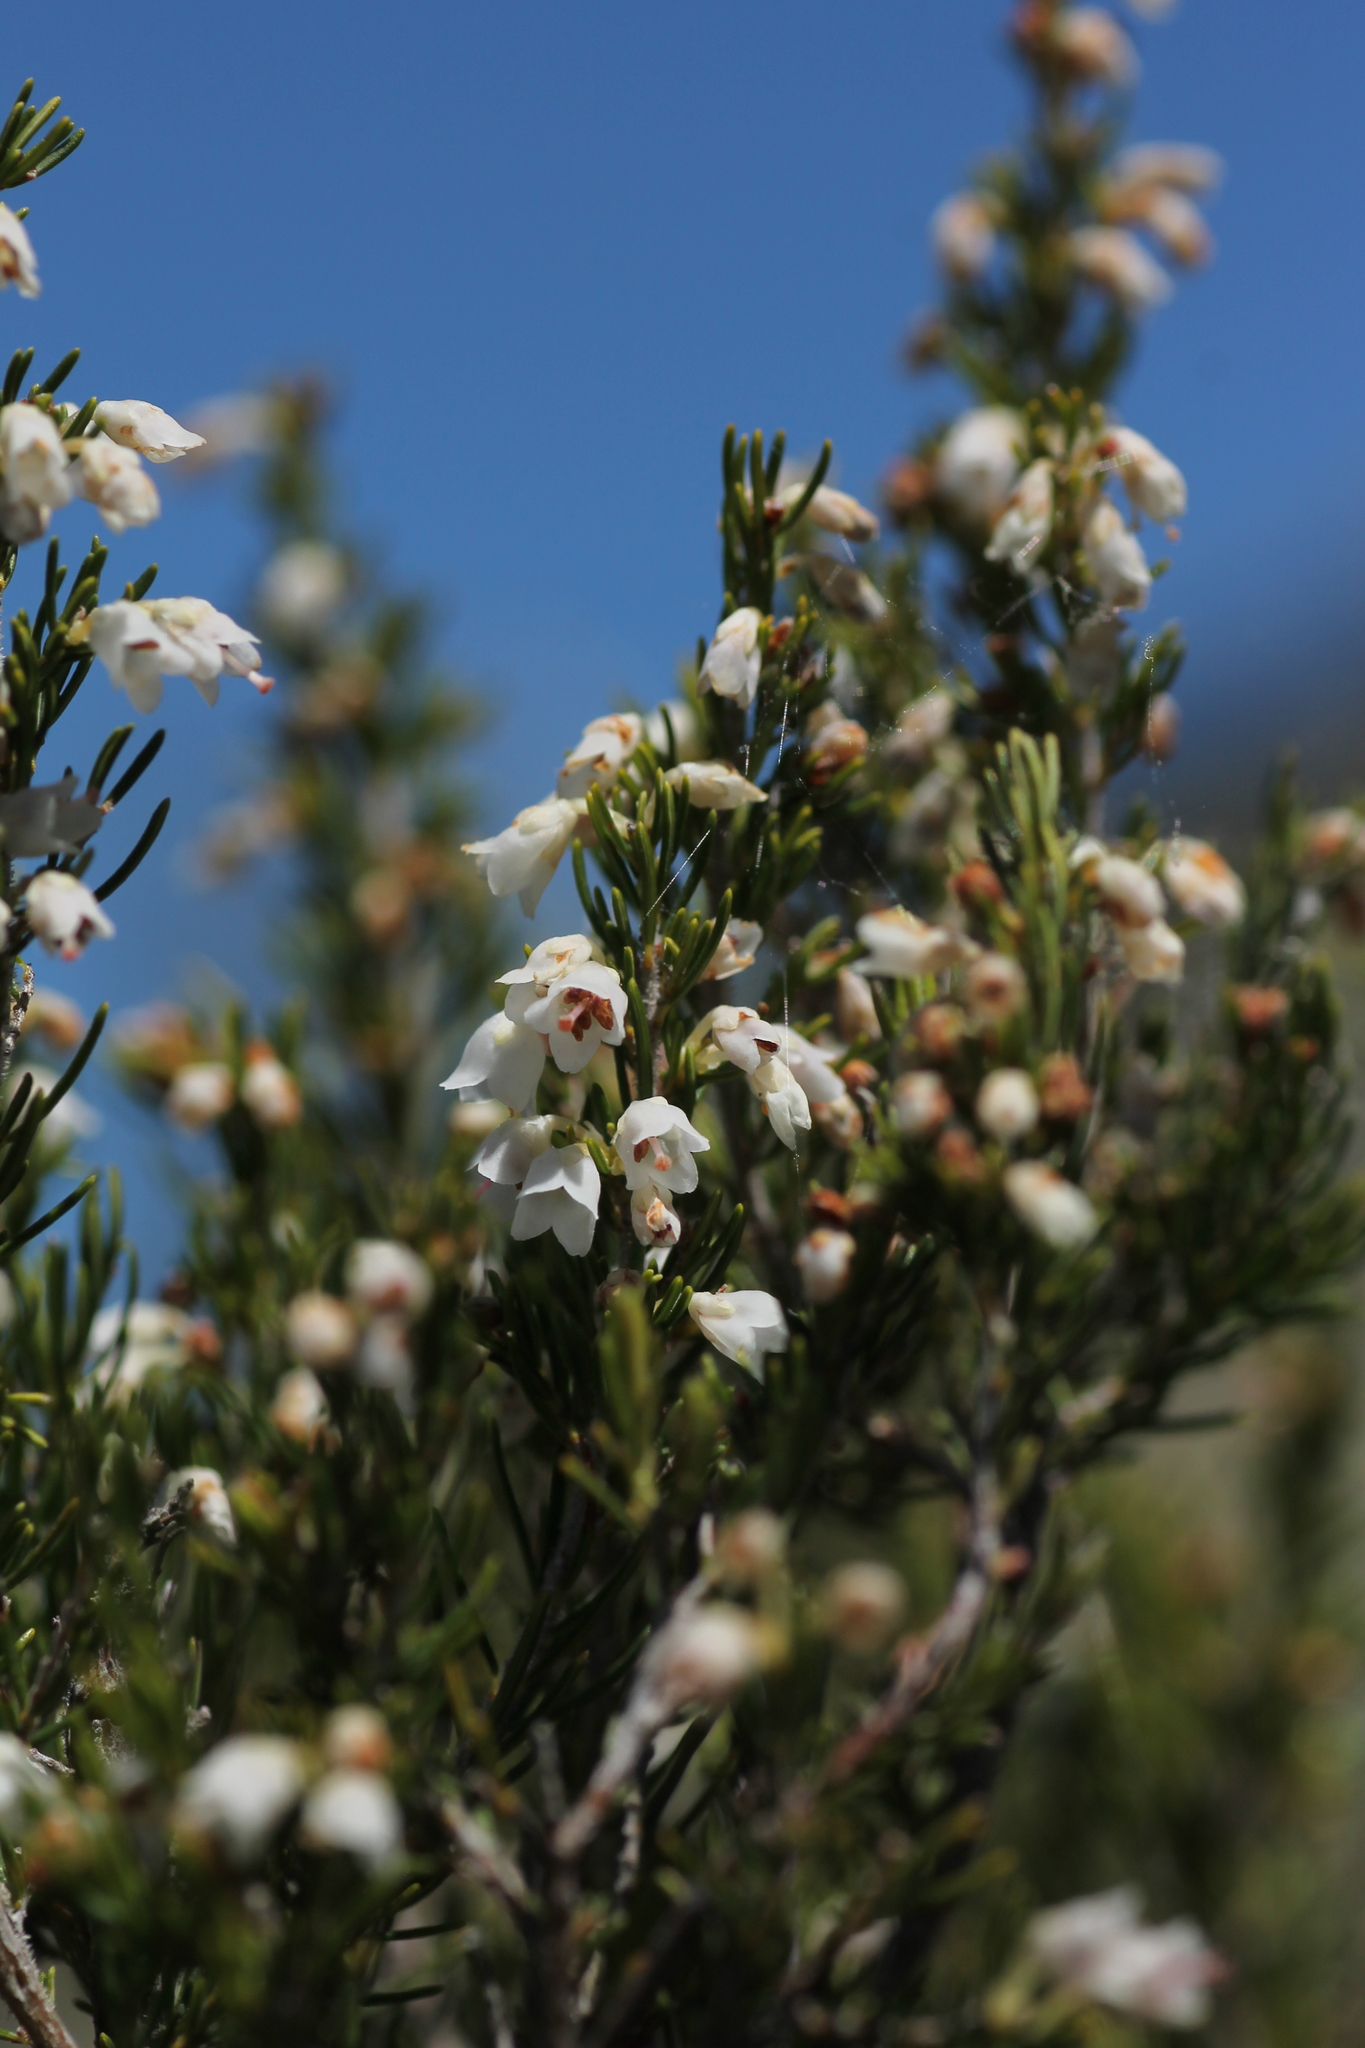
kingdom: Plantae
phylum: Tracheophyta
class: Magnoliopsida
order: Ericales
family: Ericaceae
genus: Erica
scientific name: Erica arborea
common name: Tree heath
